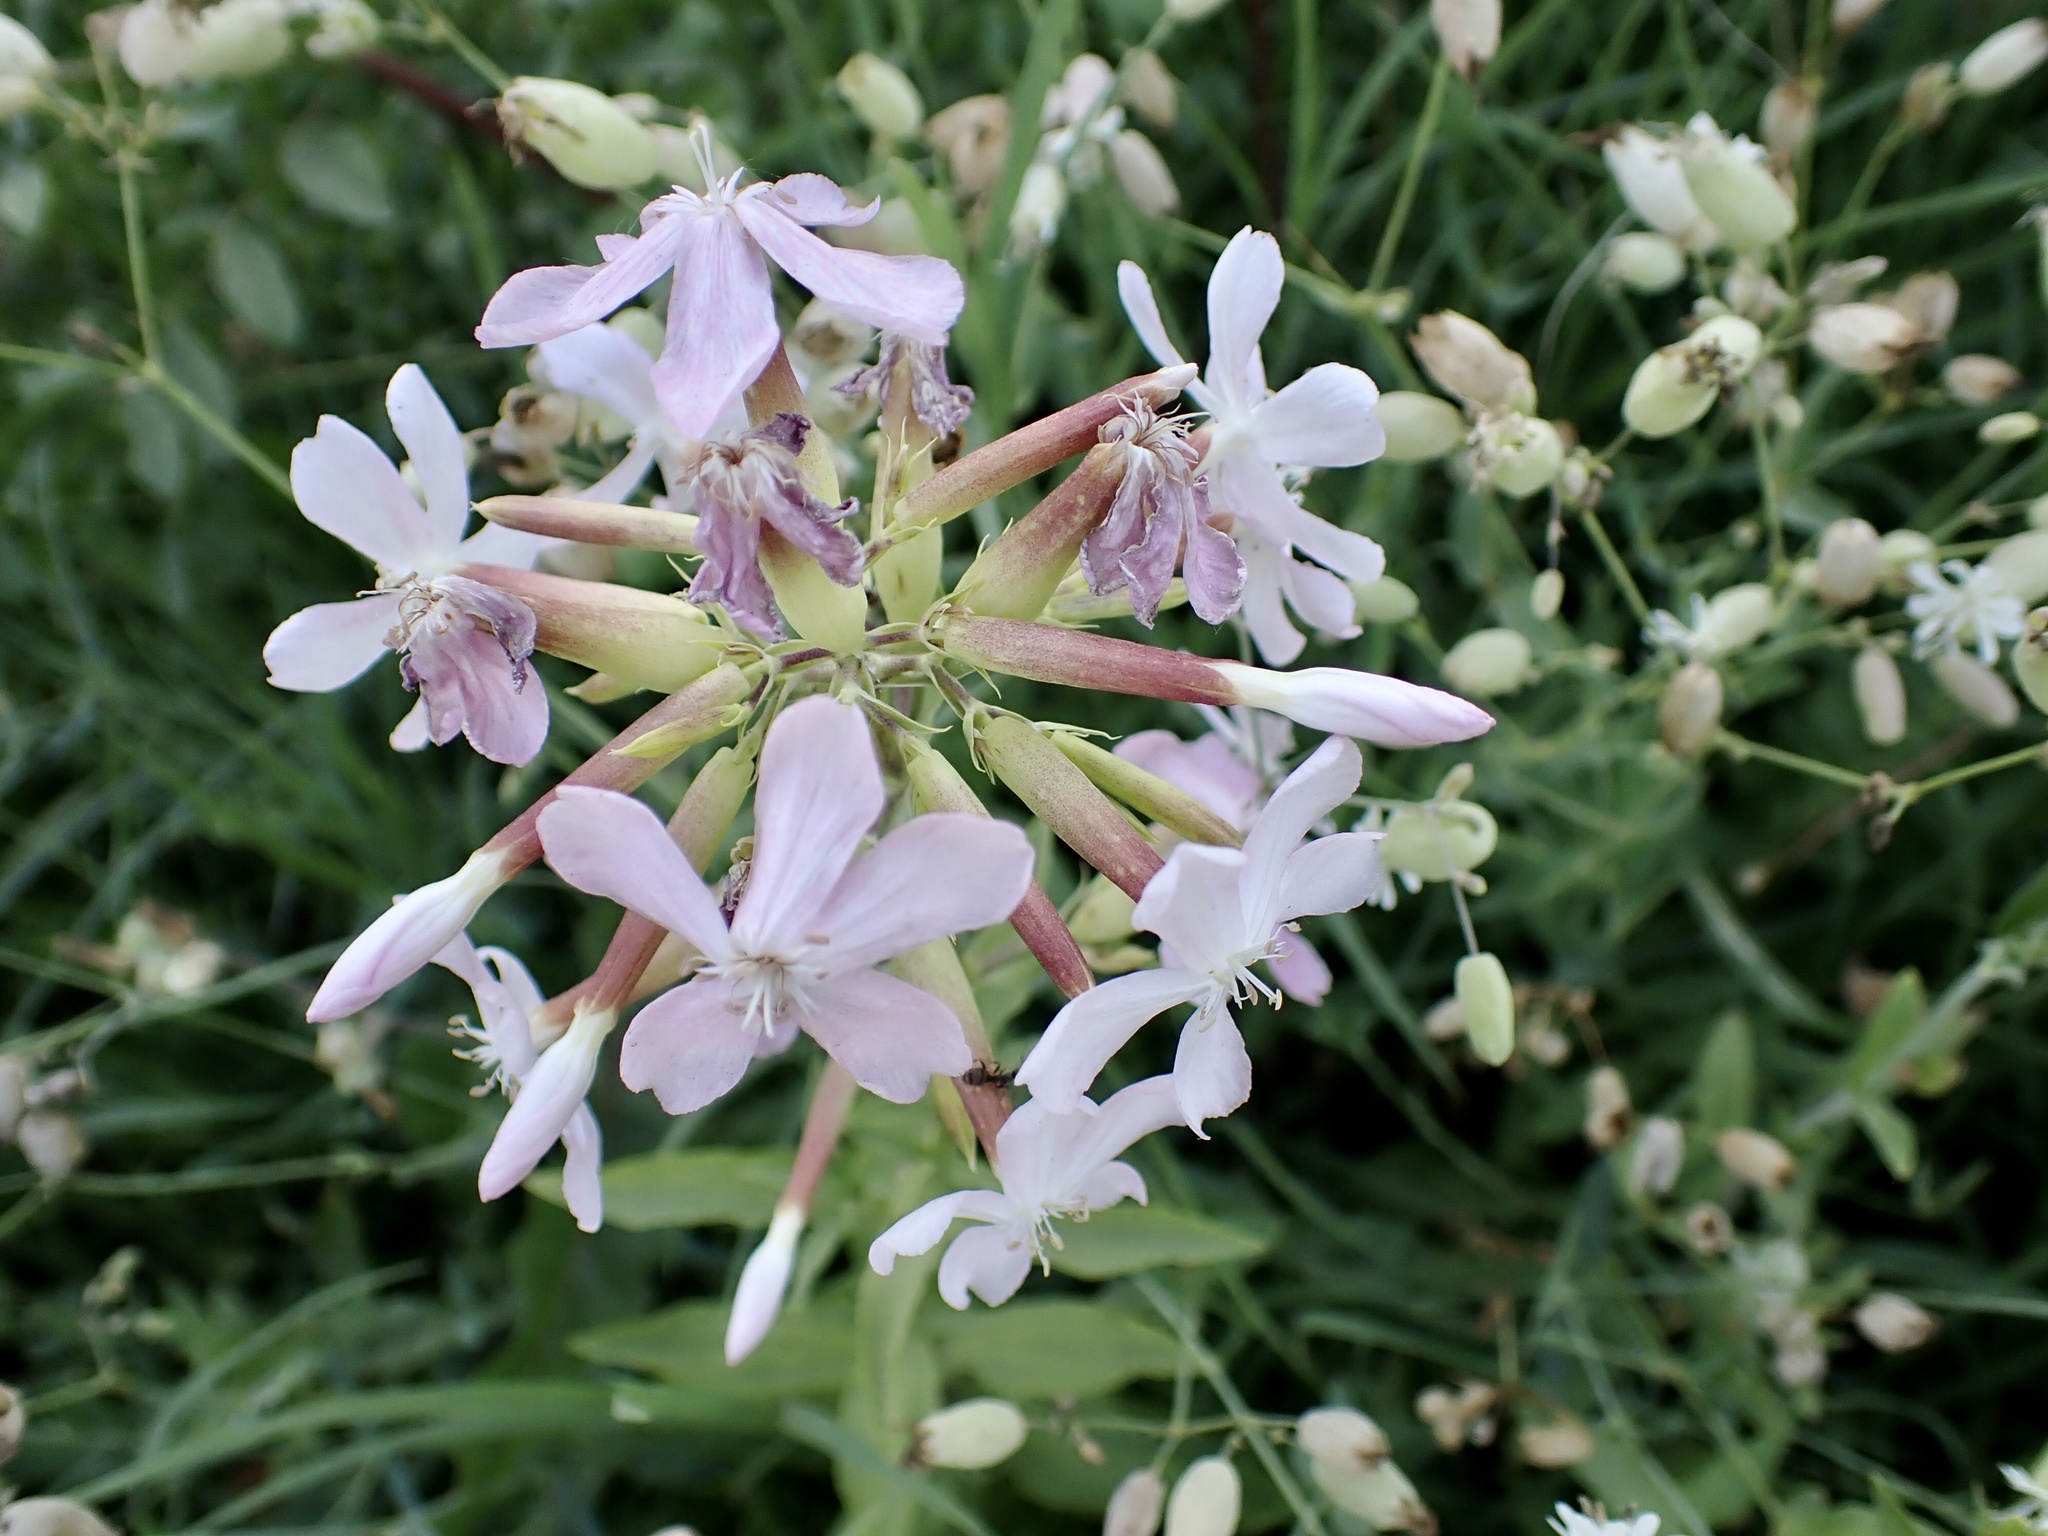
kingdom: Plantae
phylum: Tracheophyta
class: Magnoliopsida
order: Caryophyllales
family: Caryophyllaceae
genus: Saponaria
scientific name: Saponaria officinalis
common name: Soapwort
